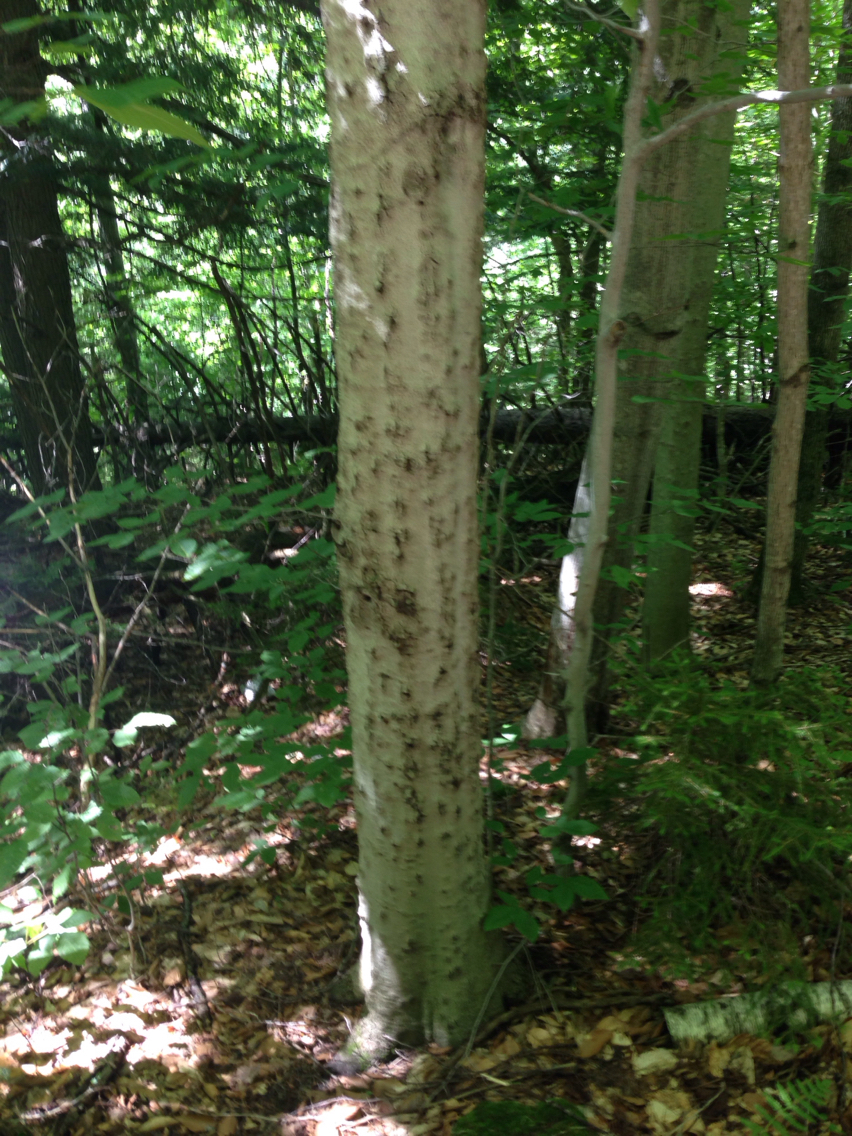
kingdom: Plantae
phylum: Tracheophyta
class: Magnoliopsida
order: Fagales
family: Fagaceae
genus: Fagus
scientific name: Fagus grandifolia
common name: American beech
